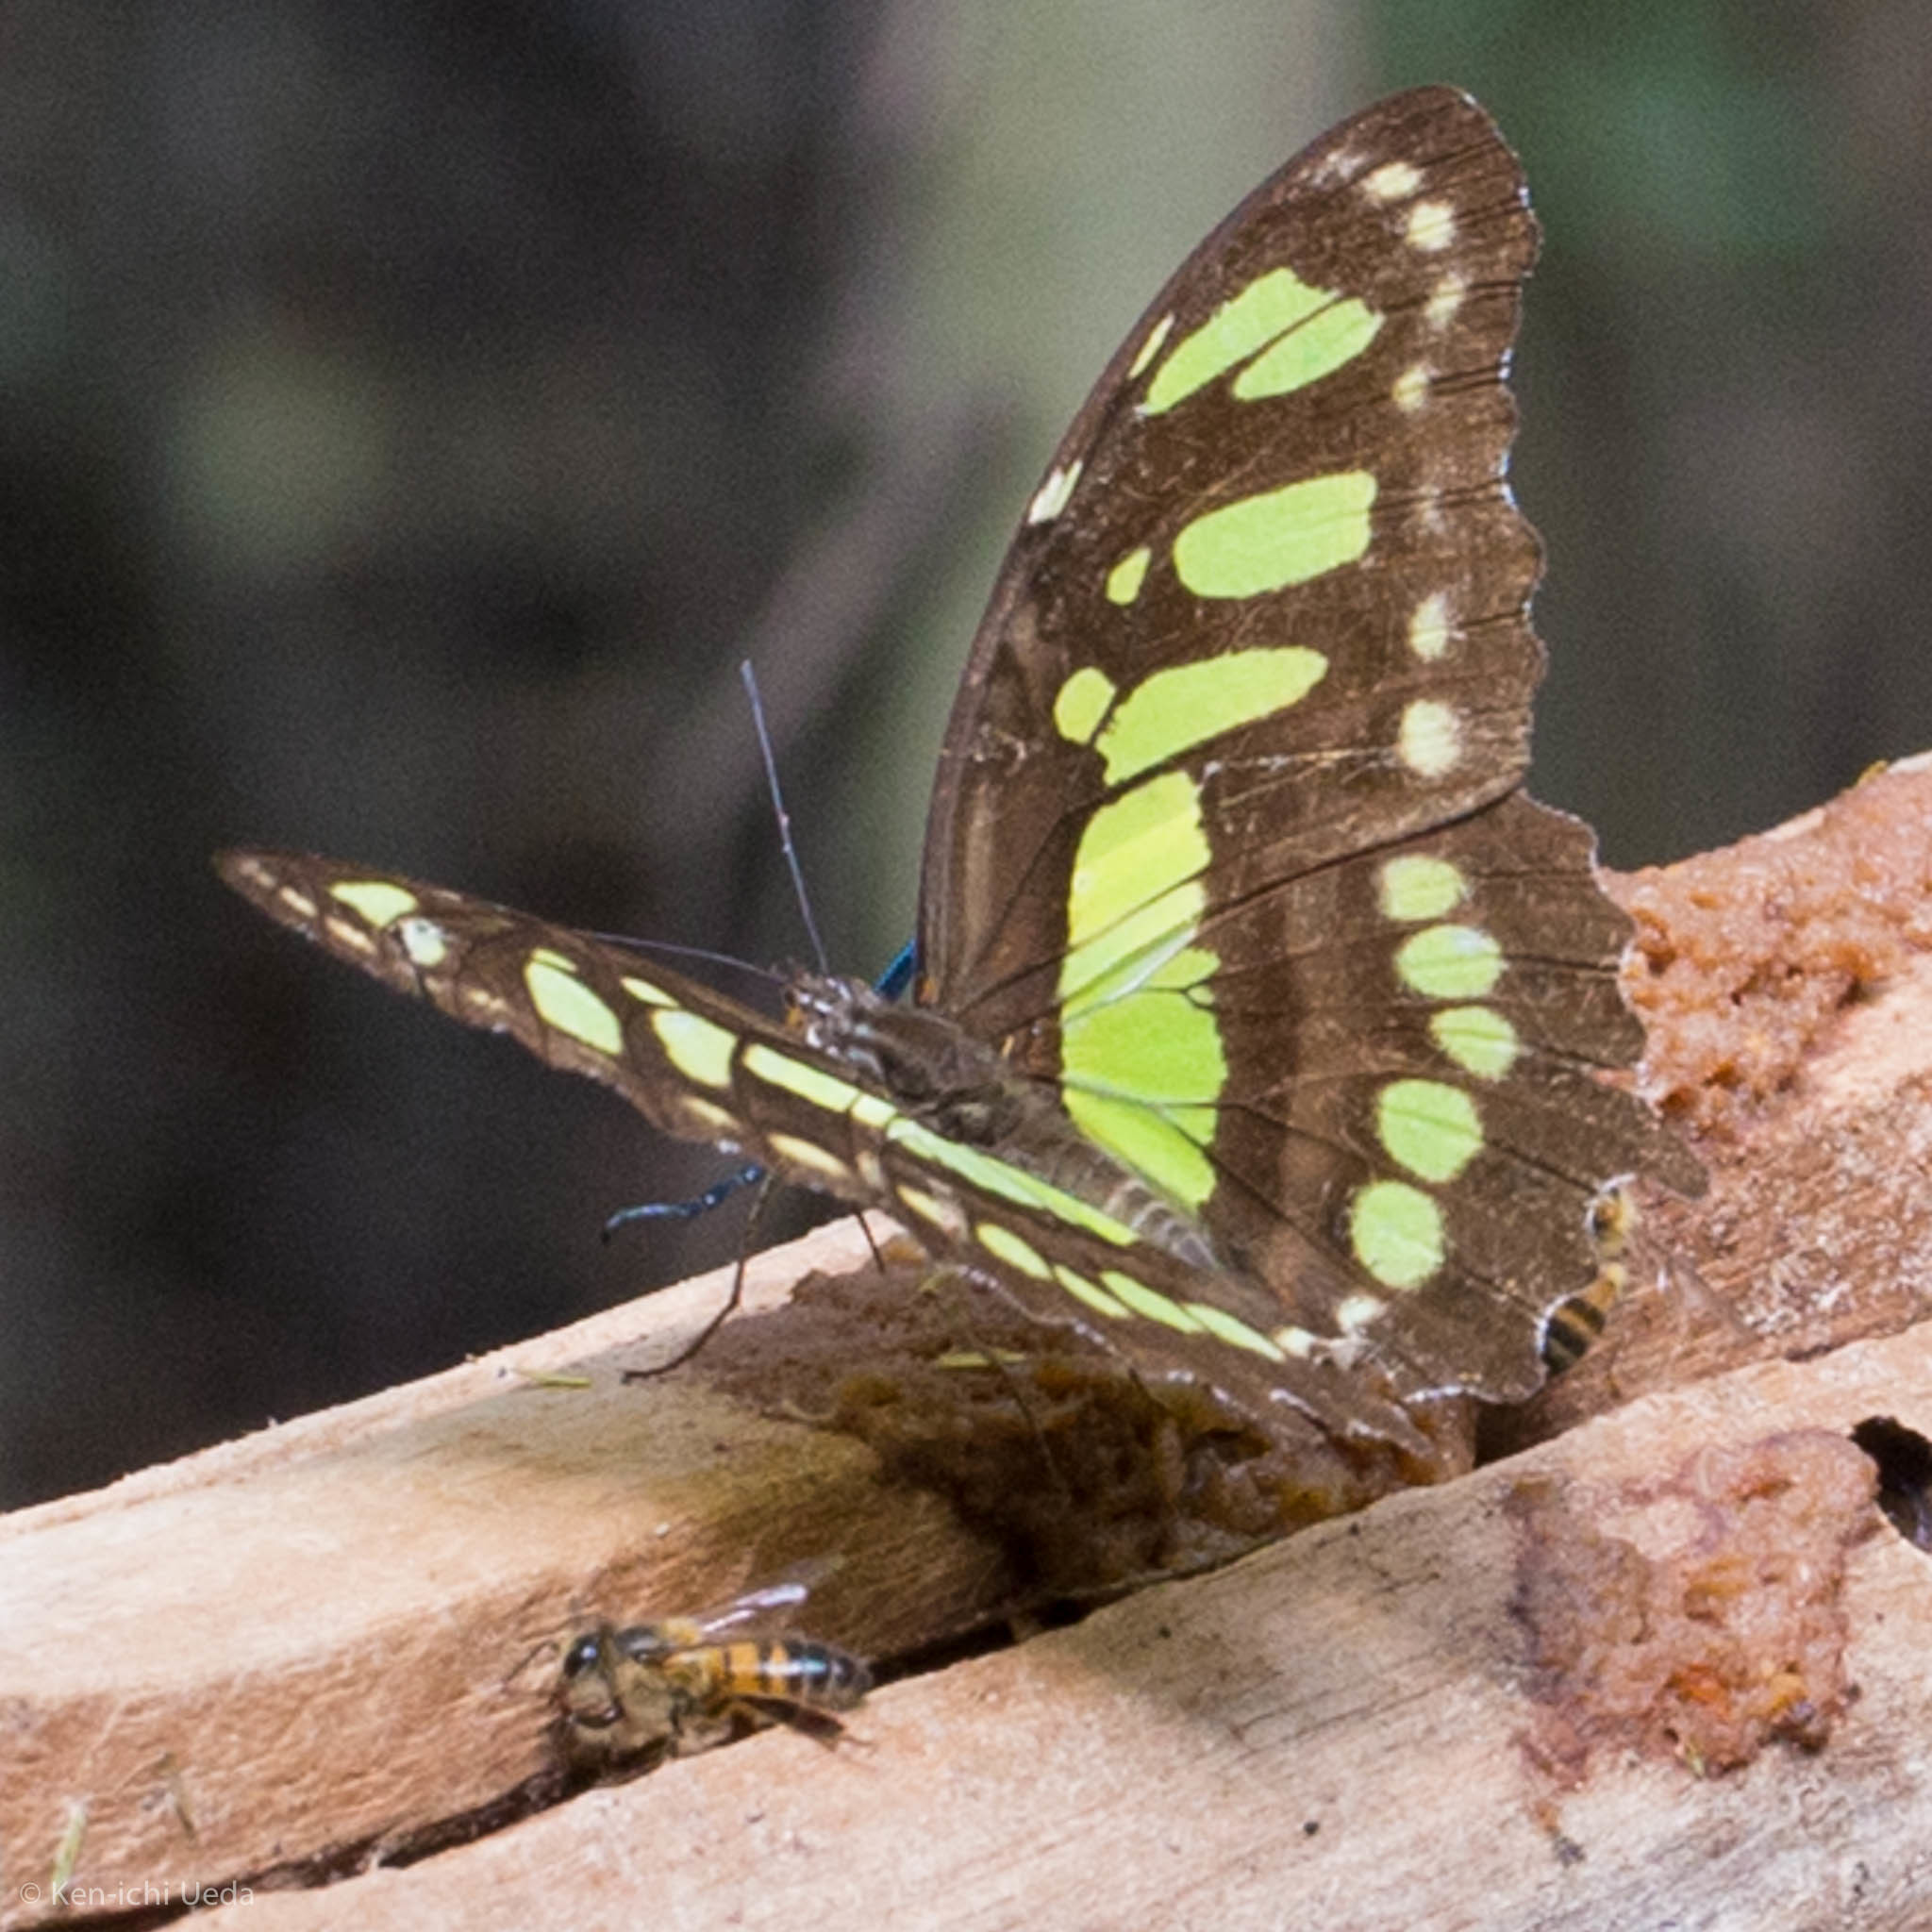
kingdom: Animalia
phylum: Arthropoda
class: Insecta
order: Lepidoptera
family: Nymphalidae
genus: Siproeta
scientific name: Siproeta stelenes
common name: Malachite
